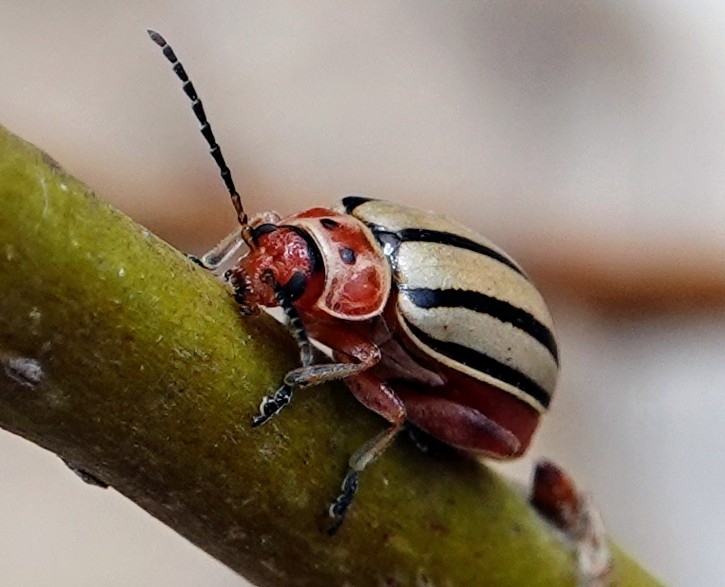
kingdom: Animalia
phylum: Arthropoda
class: Insecta
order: Coleoptera
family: Chrysomelidae
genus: Disonycha
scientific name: Disonycha alternata
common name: Striped willow leaf beetle
